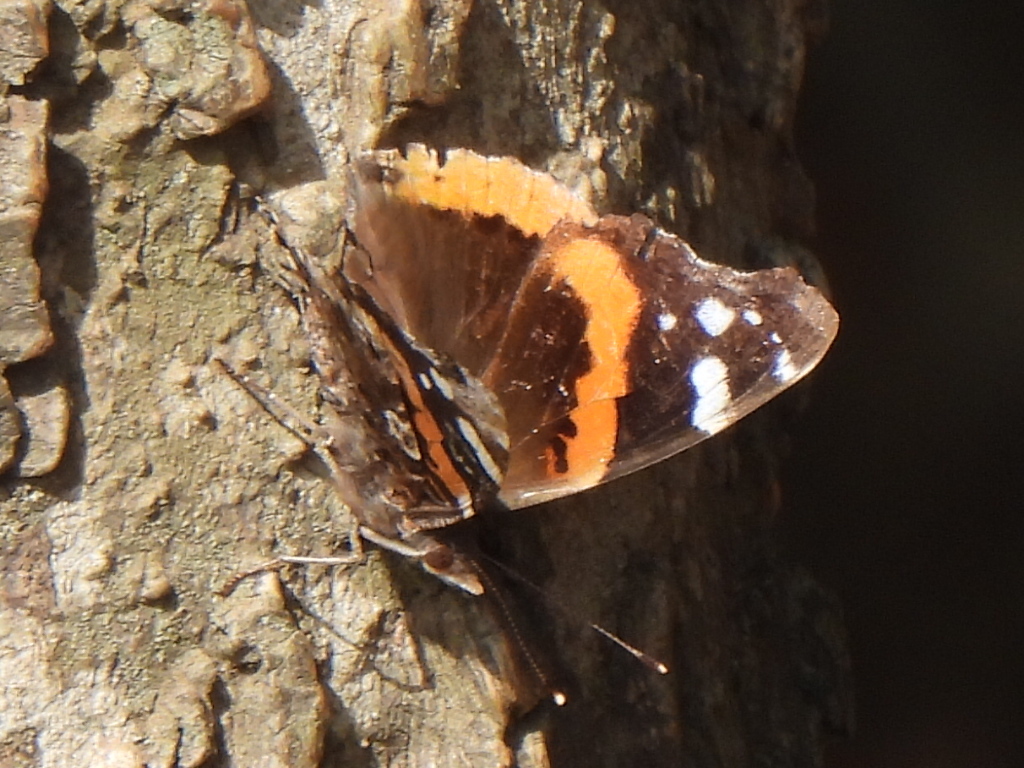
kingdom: Animalia
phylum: Arthropoda
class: Insecta
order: Lepidoptera
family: Nymphalidae
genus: Vanessa
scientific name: Vanessa atalanta
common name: Red admiral
